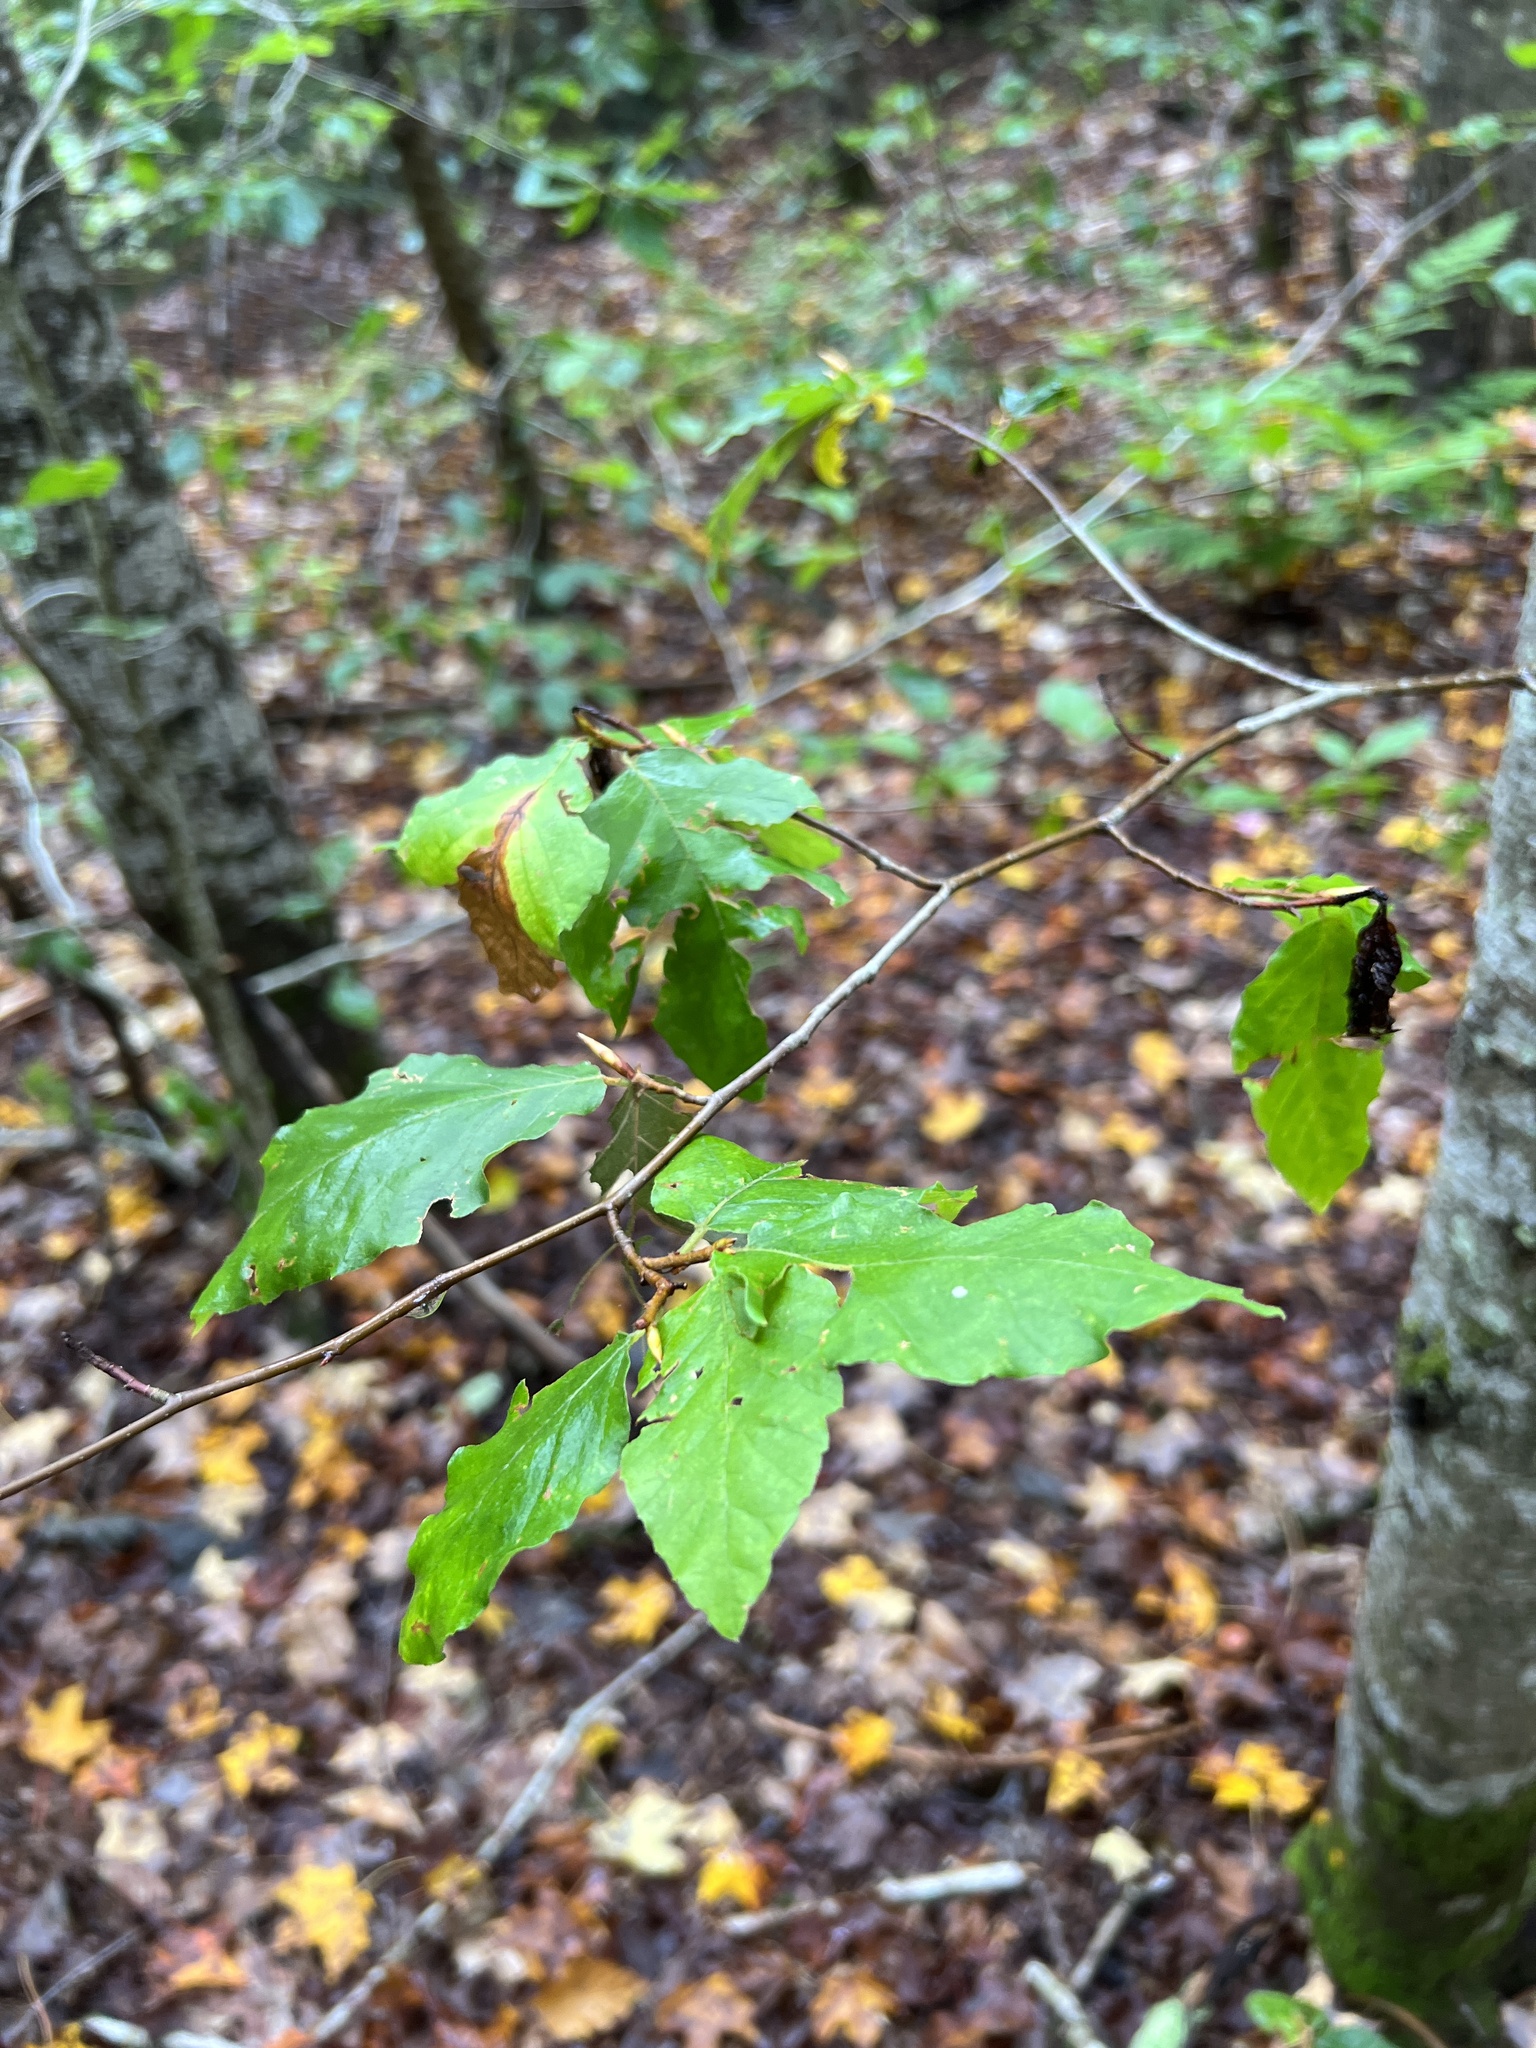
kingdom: Plantae
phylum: Tracheophyta
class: Magnoliopsida
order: Fagales
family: Fagaceae
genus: Fagus
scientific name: Fagus grandifolia
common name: American beech
